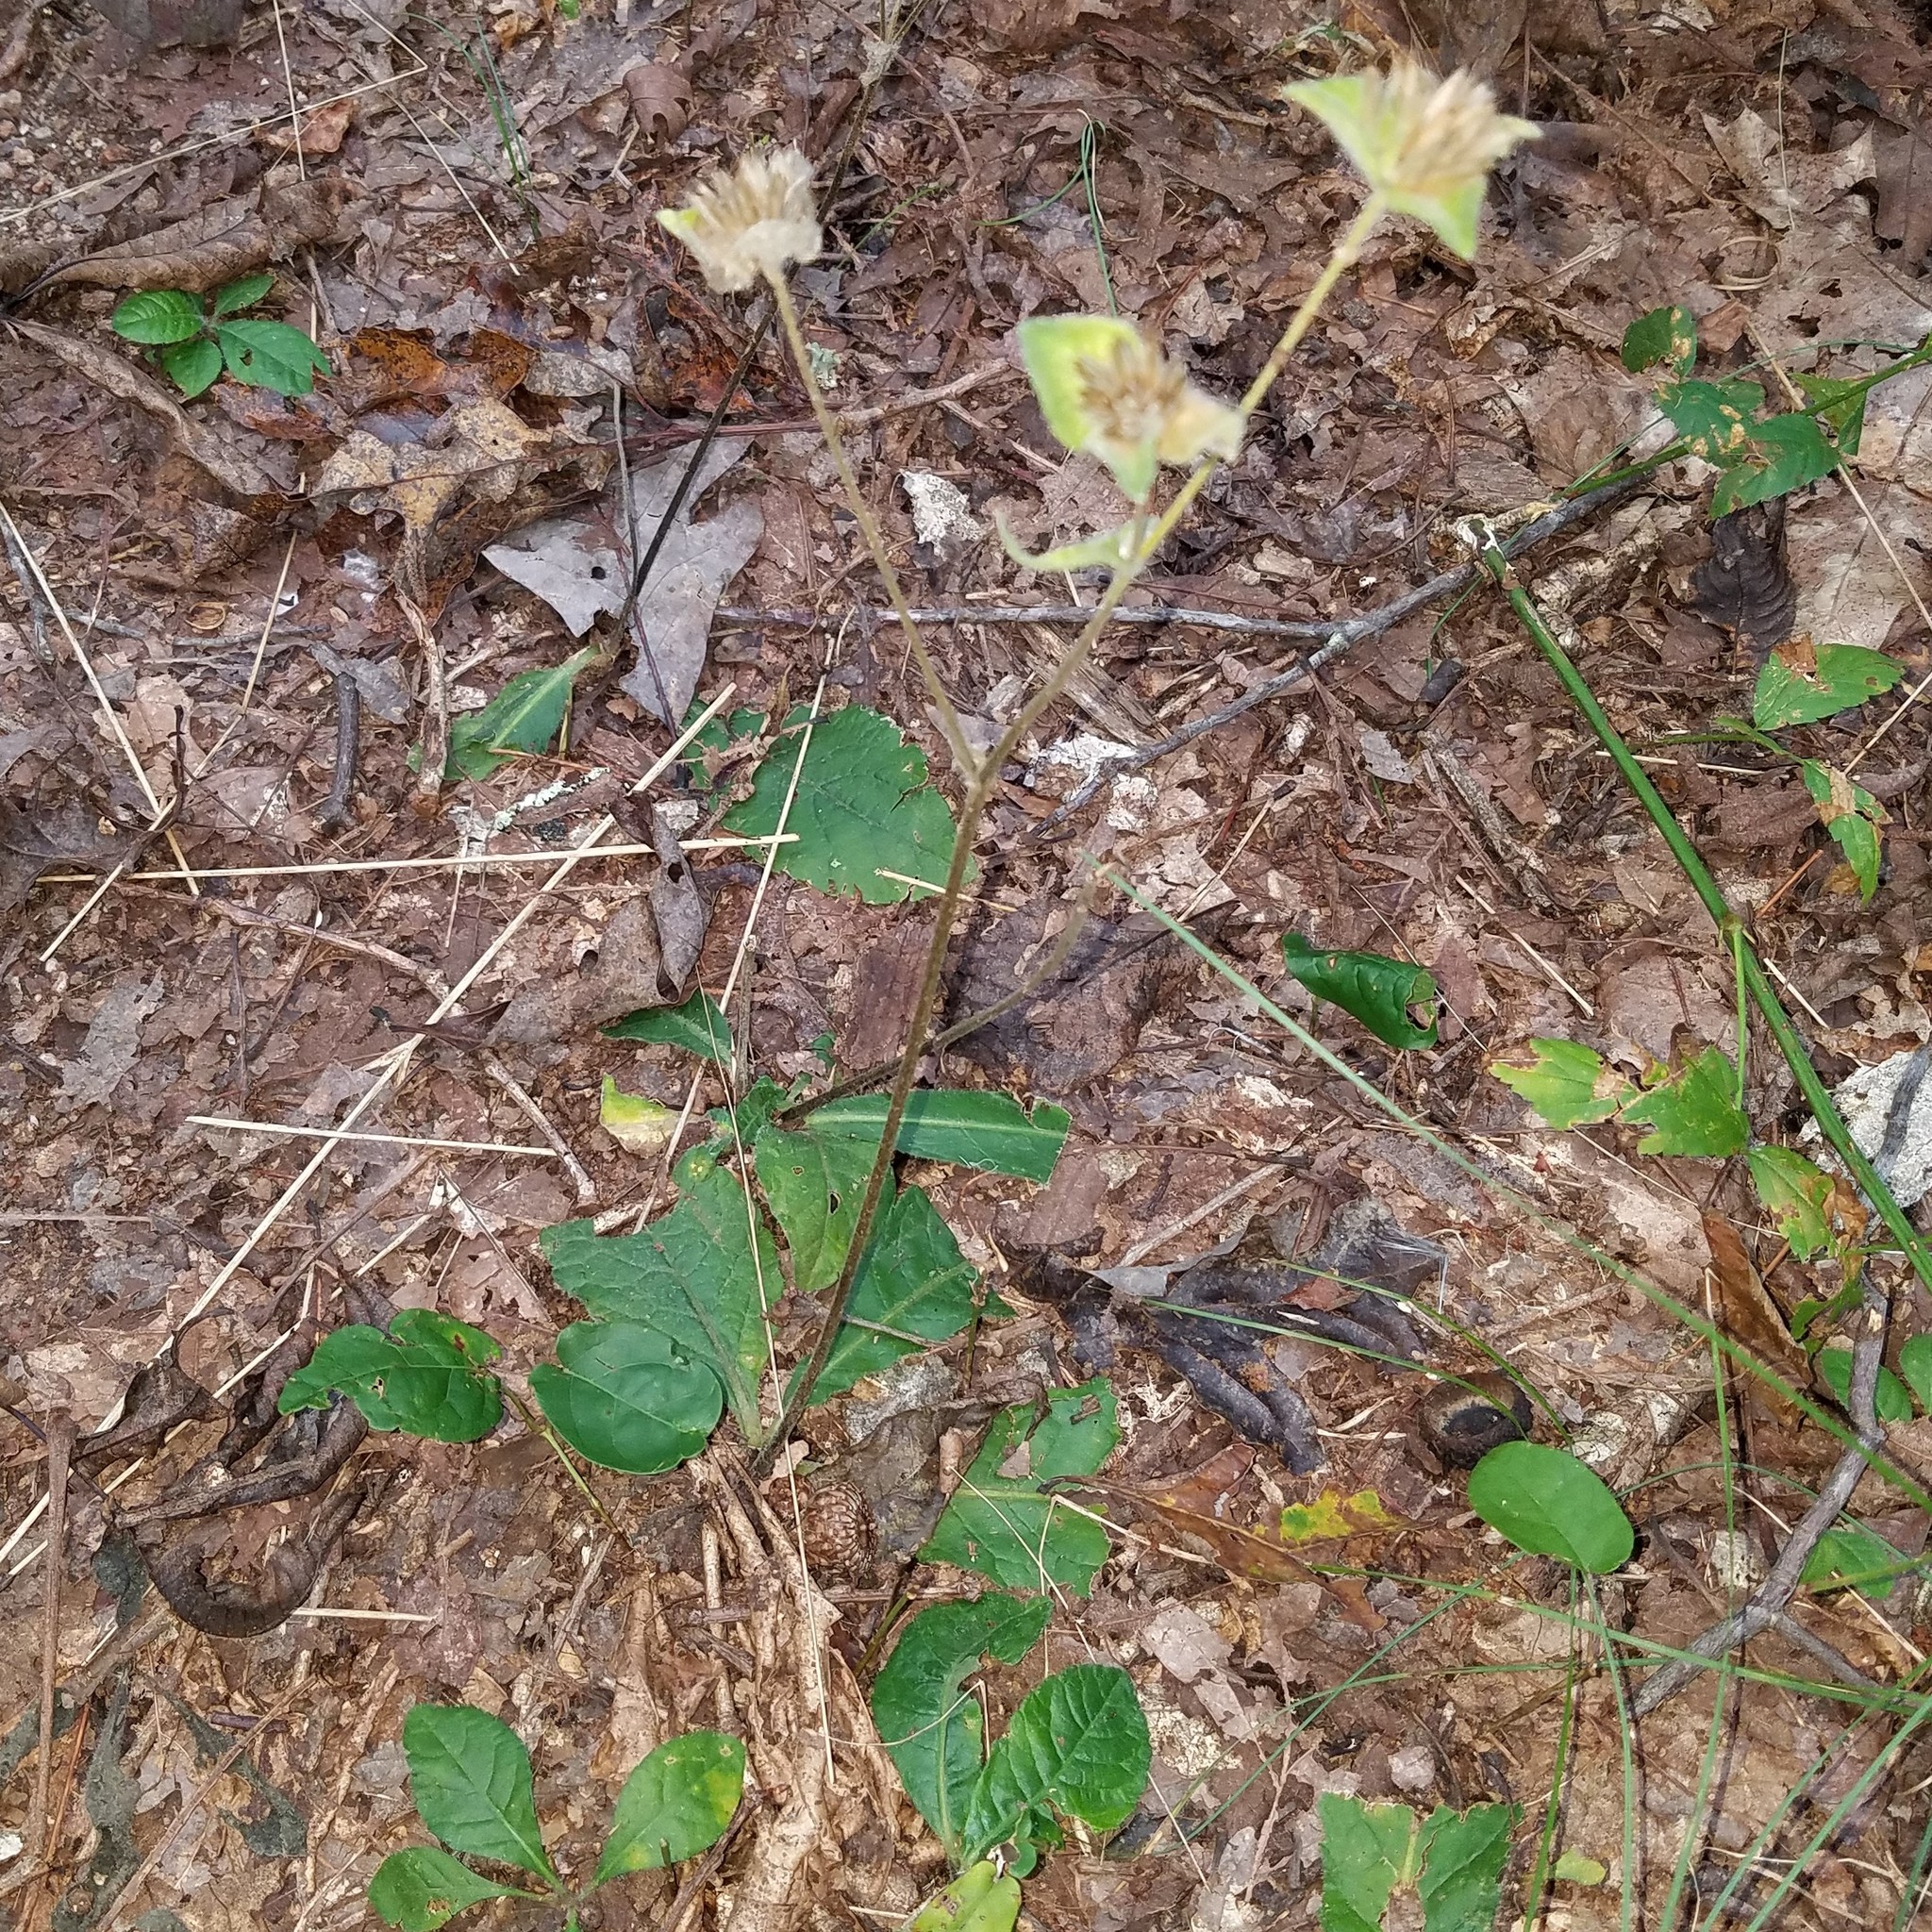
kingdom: Plantae
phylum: Tracheophyta
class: Magnoliopsida
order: Asterales
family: Asteraceae
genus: Elephantopus
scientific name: Elephantopus tomentosus
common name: Tobacco-weed
